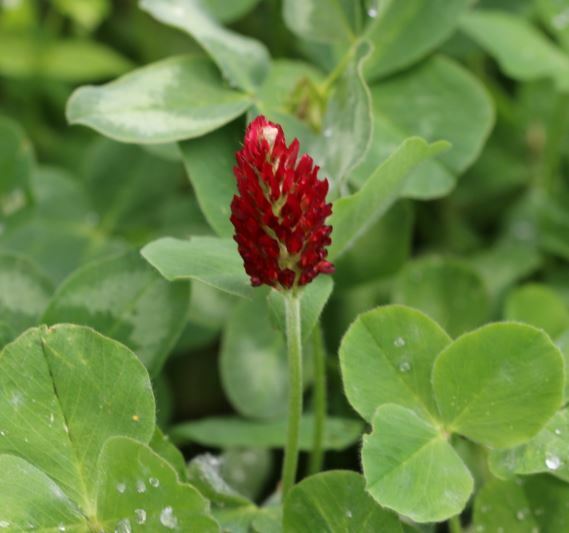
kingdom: Plantae
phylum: Tracheophyta
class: Magnoliopsida
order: Fabales
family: Fabaceae
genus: Trifolium
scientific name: Trifolium incarnatum
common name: Crimson clover
